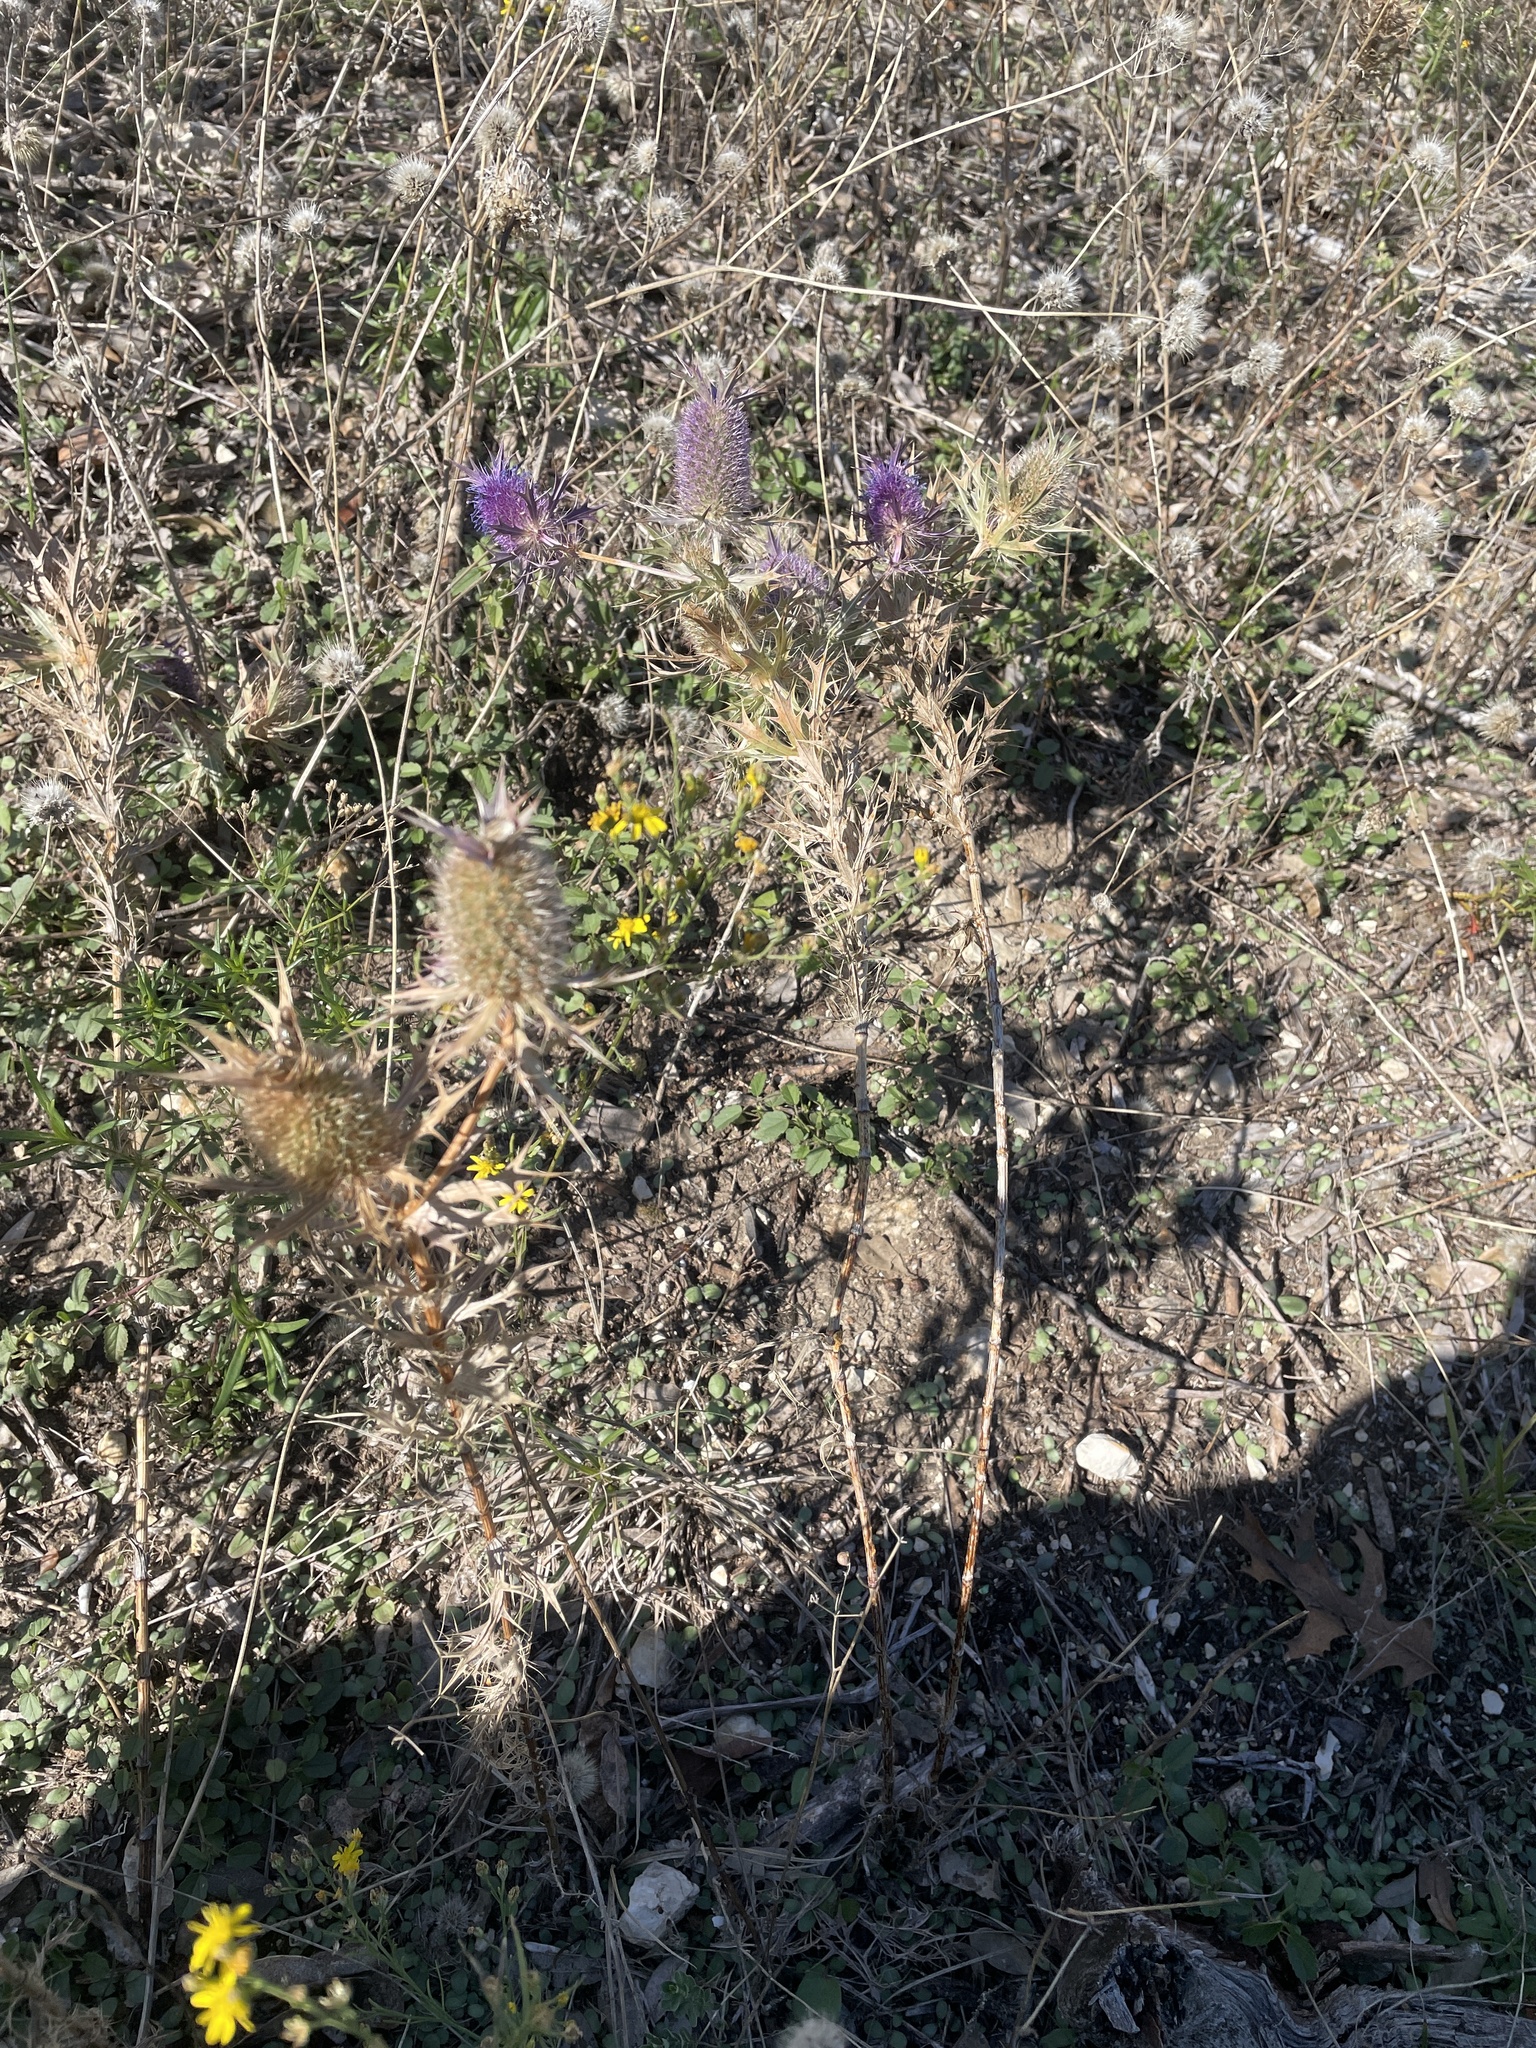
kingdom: Plantae
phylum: Tracheophyta
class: Magnoliopsida
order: Apiales
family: Apiaceae
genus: Eryngium
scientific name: Eryngium leavenworthii
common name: Leavenworth's eryngo
